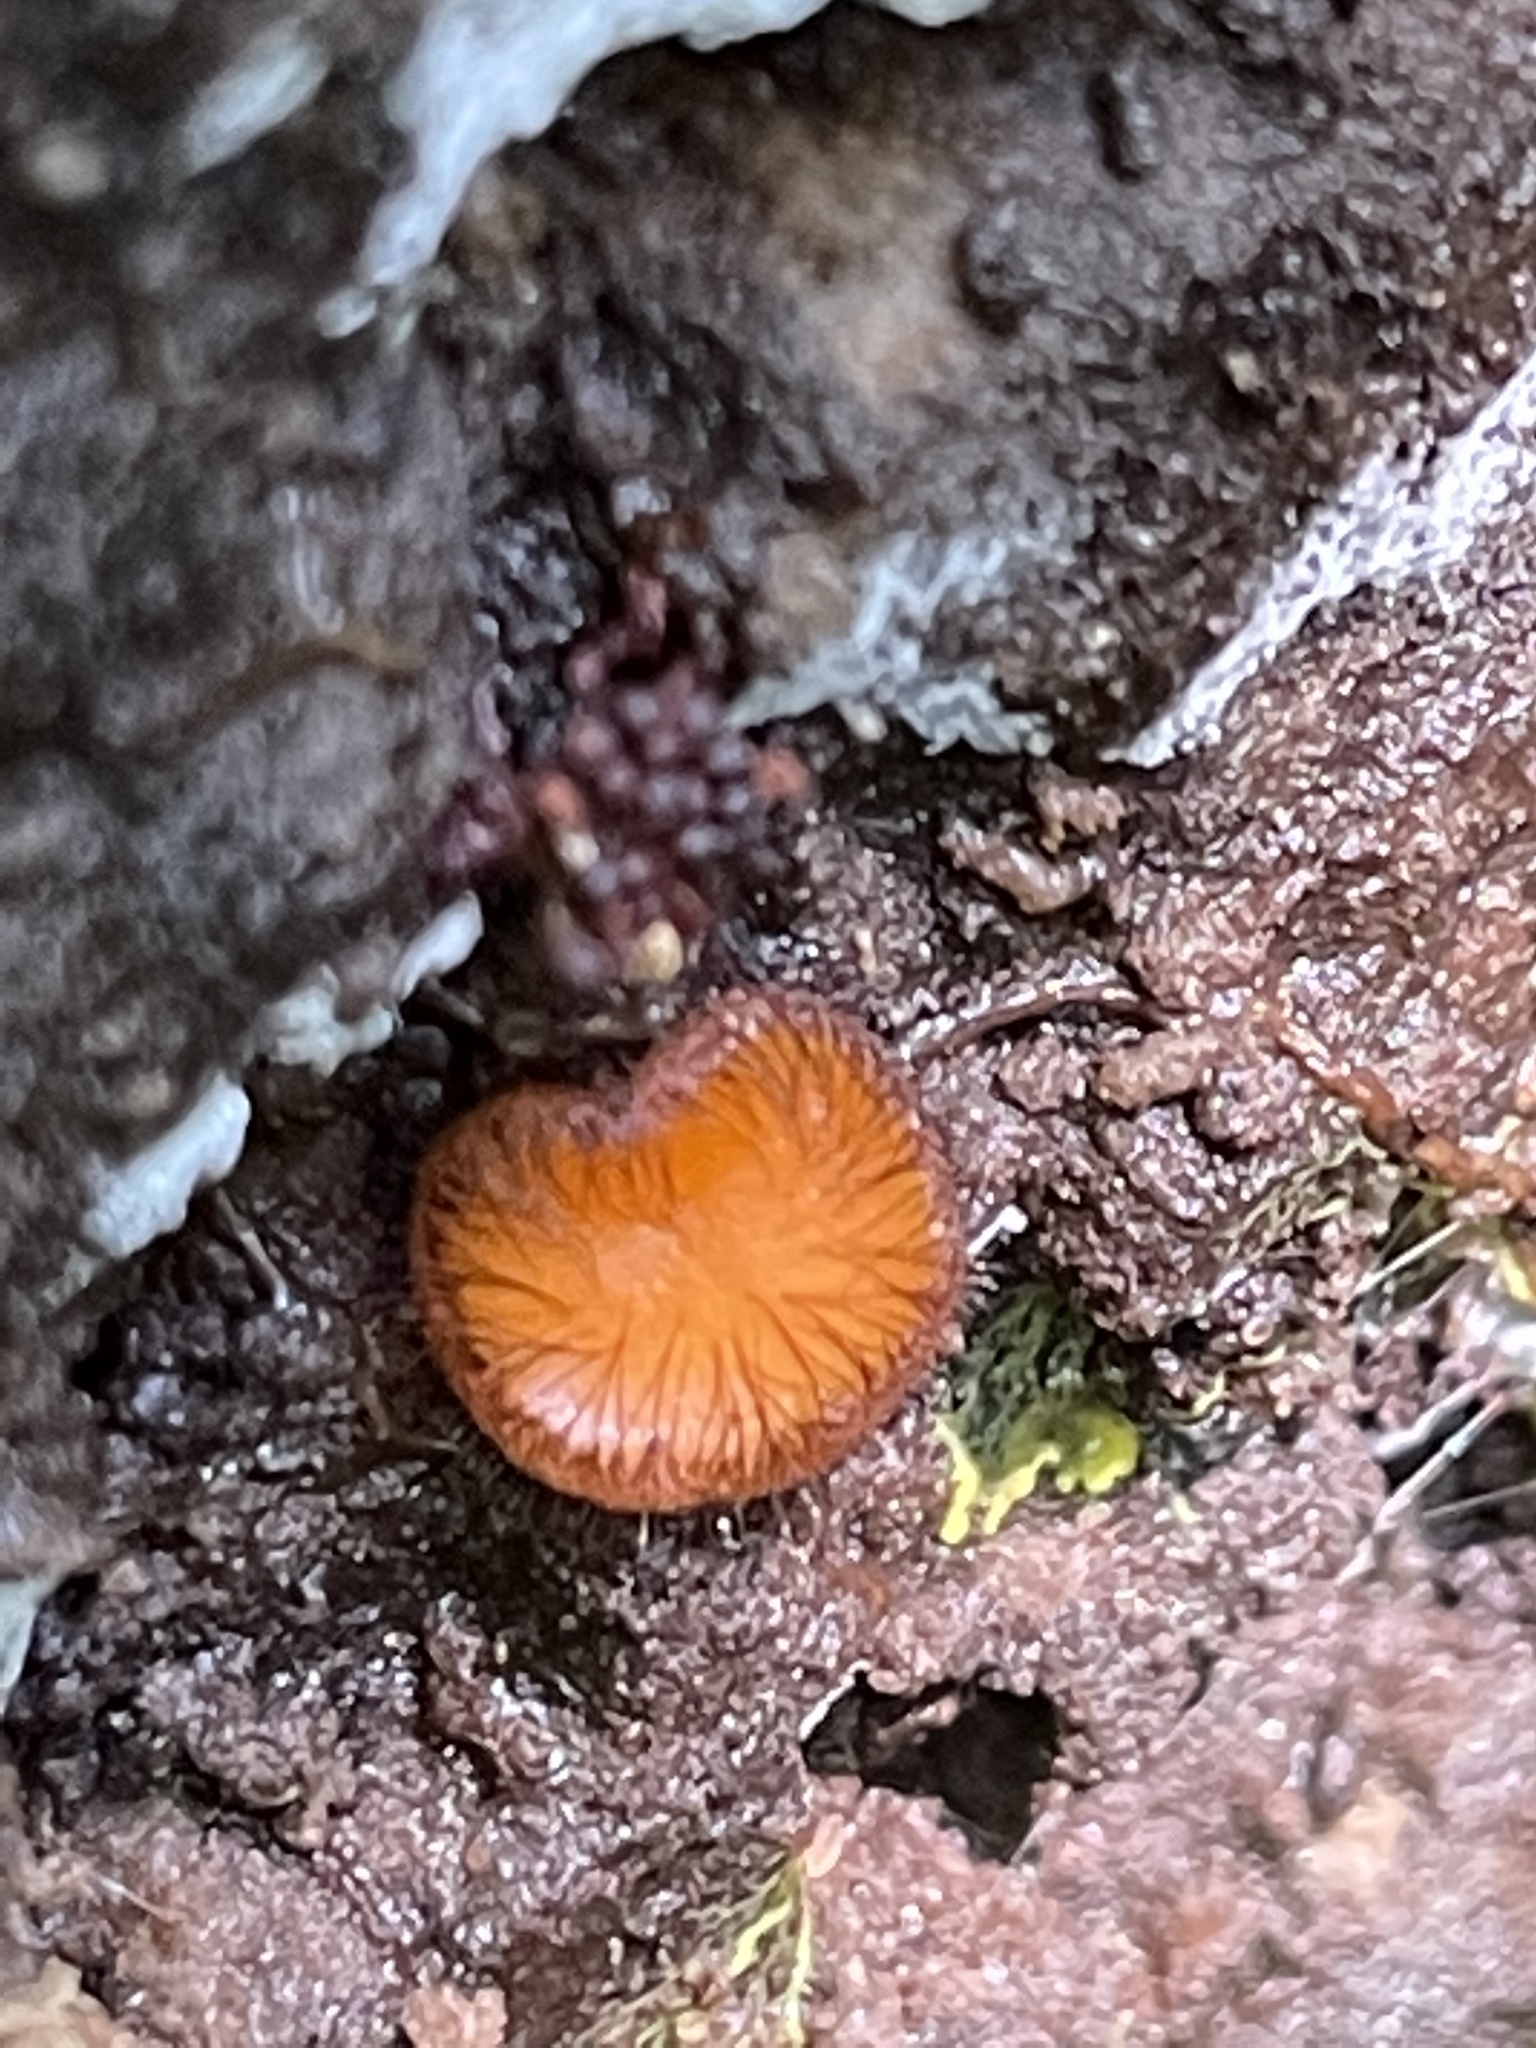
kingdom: Fungi
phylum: Ascomycota
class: Pezizomycetes
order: Pezizales
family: Pyronemataceae
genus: Scutellinia
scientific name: Scutellinia setosa
